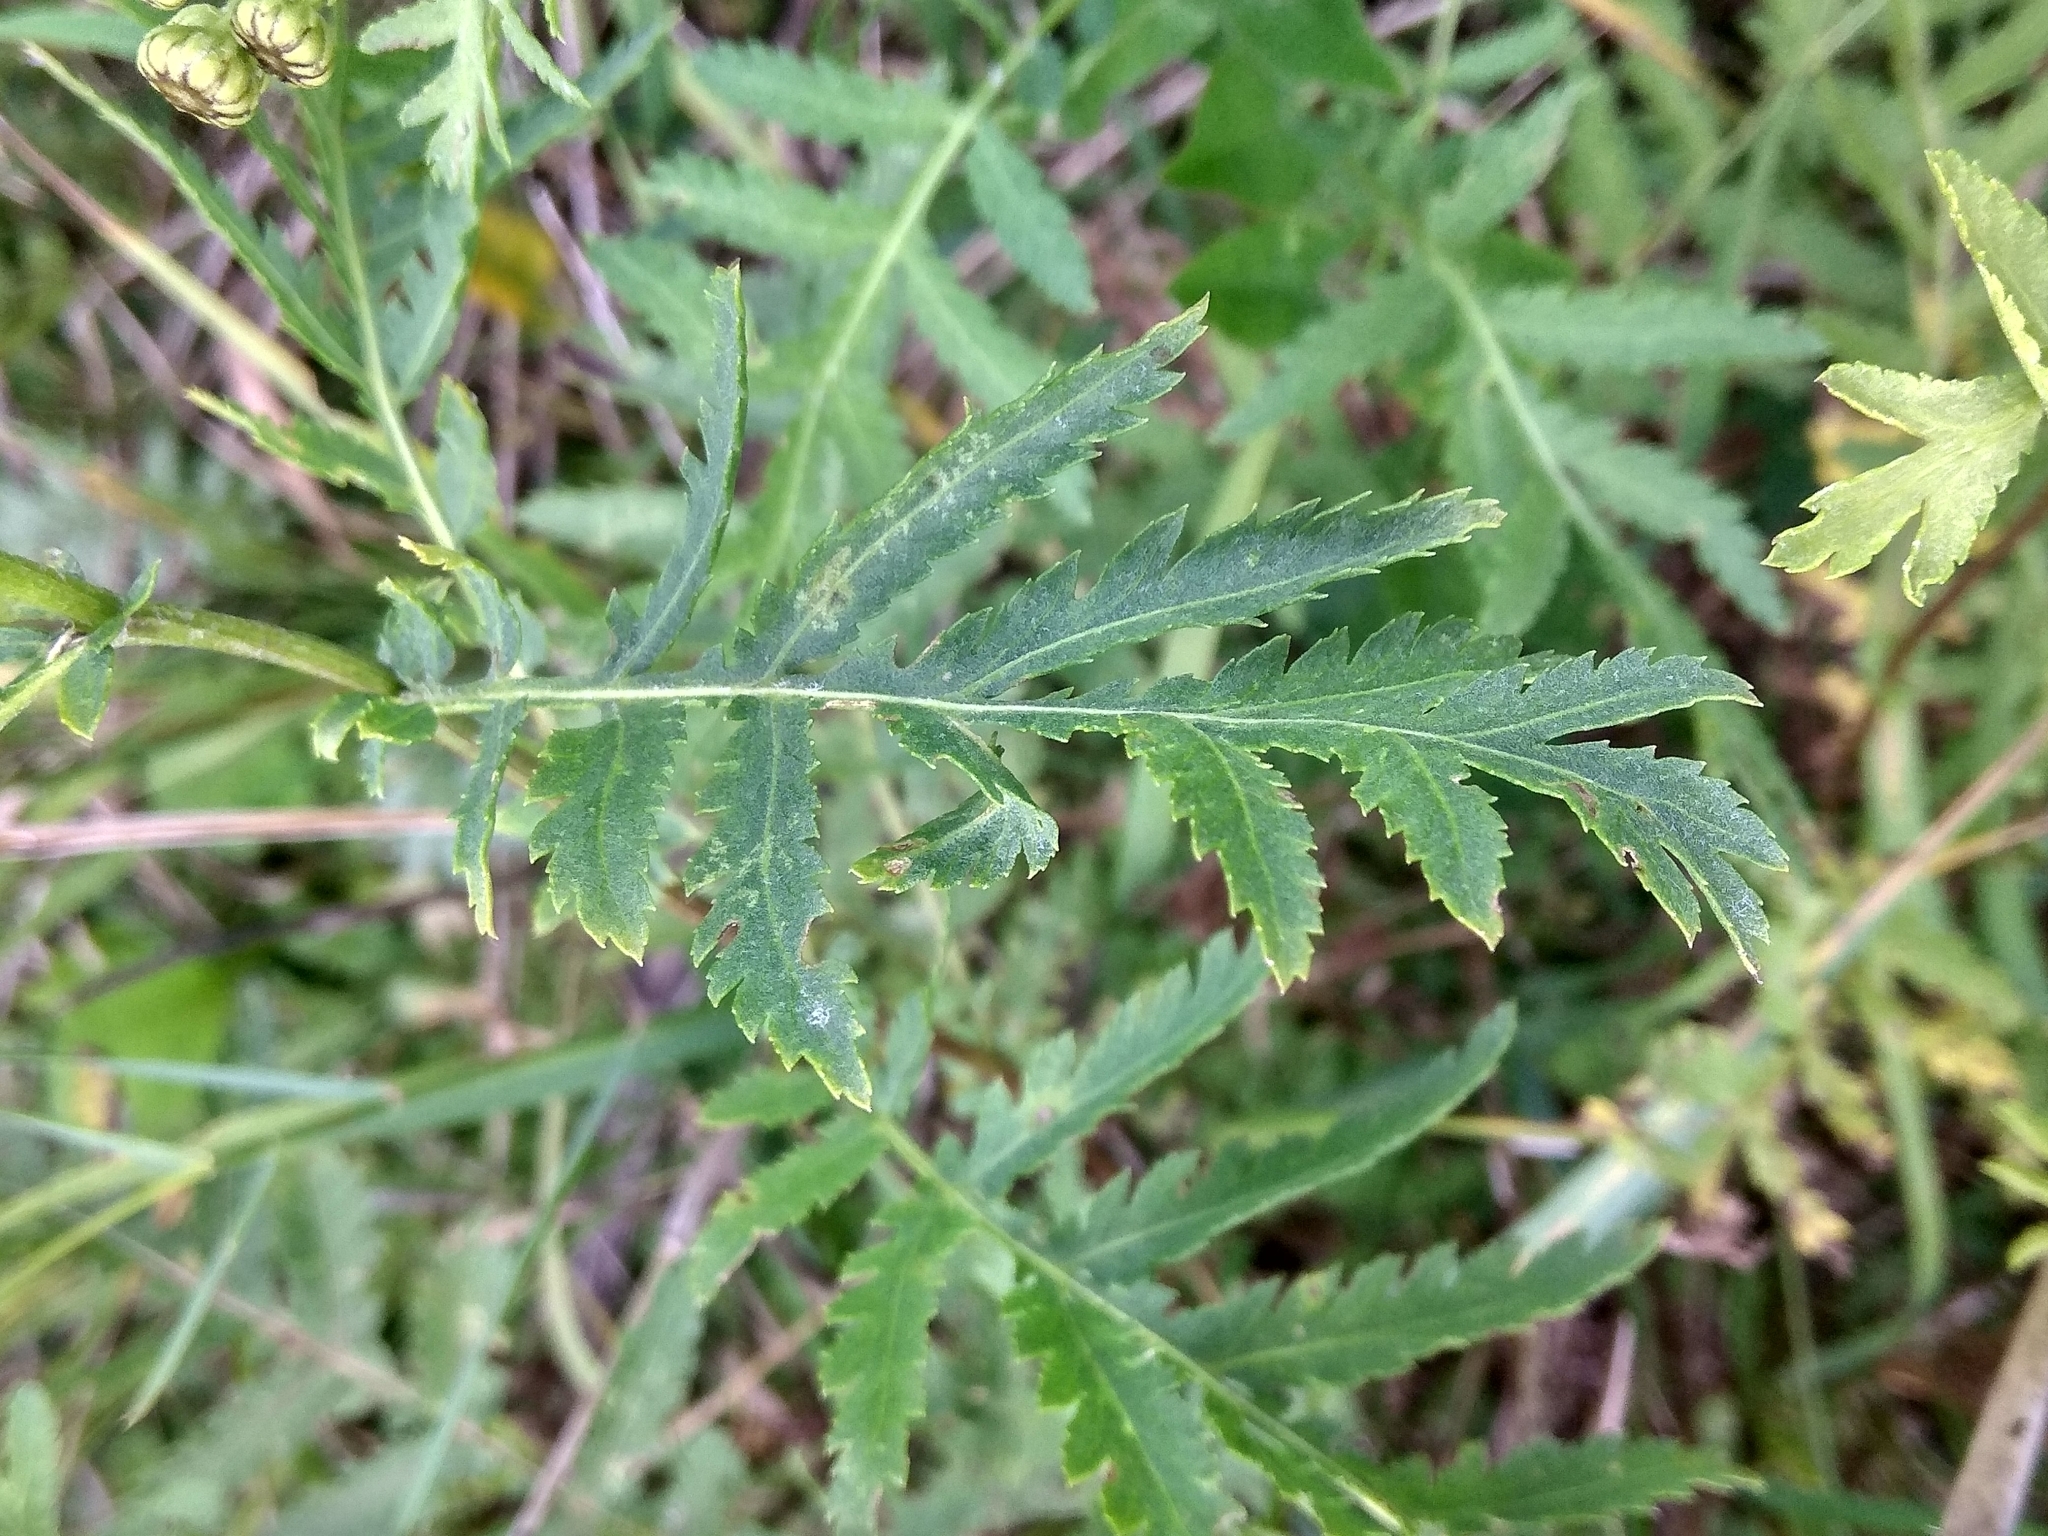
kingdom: Plantae
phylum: Tracheophyta
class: Magnoliopsida
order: Asterales
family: Asteraceae
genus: Tanacetum
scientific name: Tanacetum vulgare
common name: Common tansy
